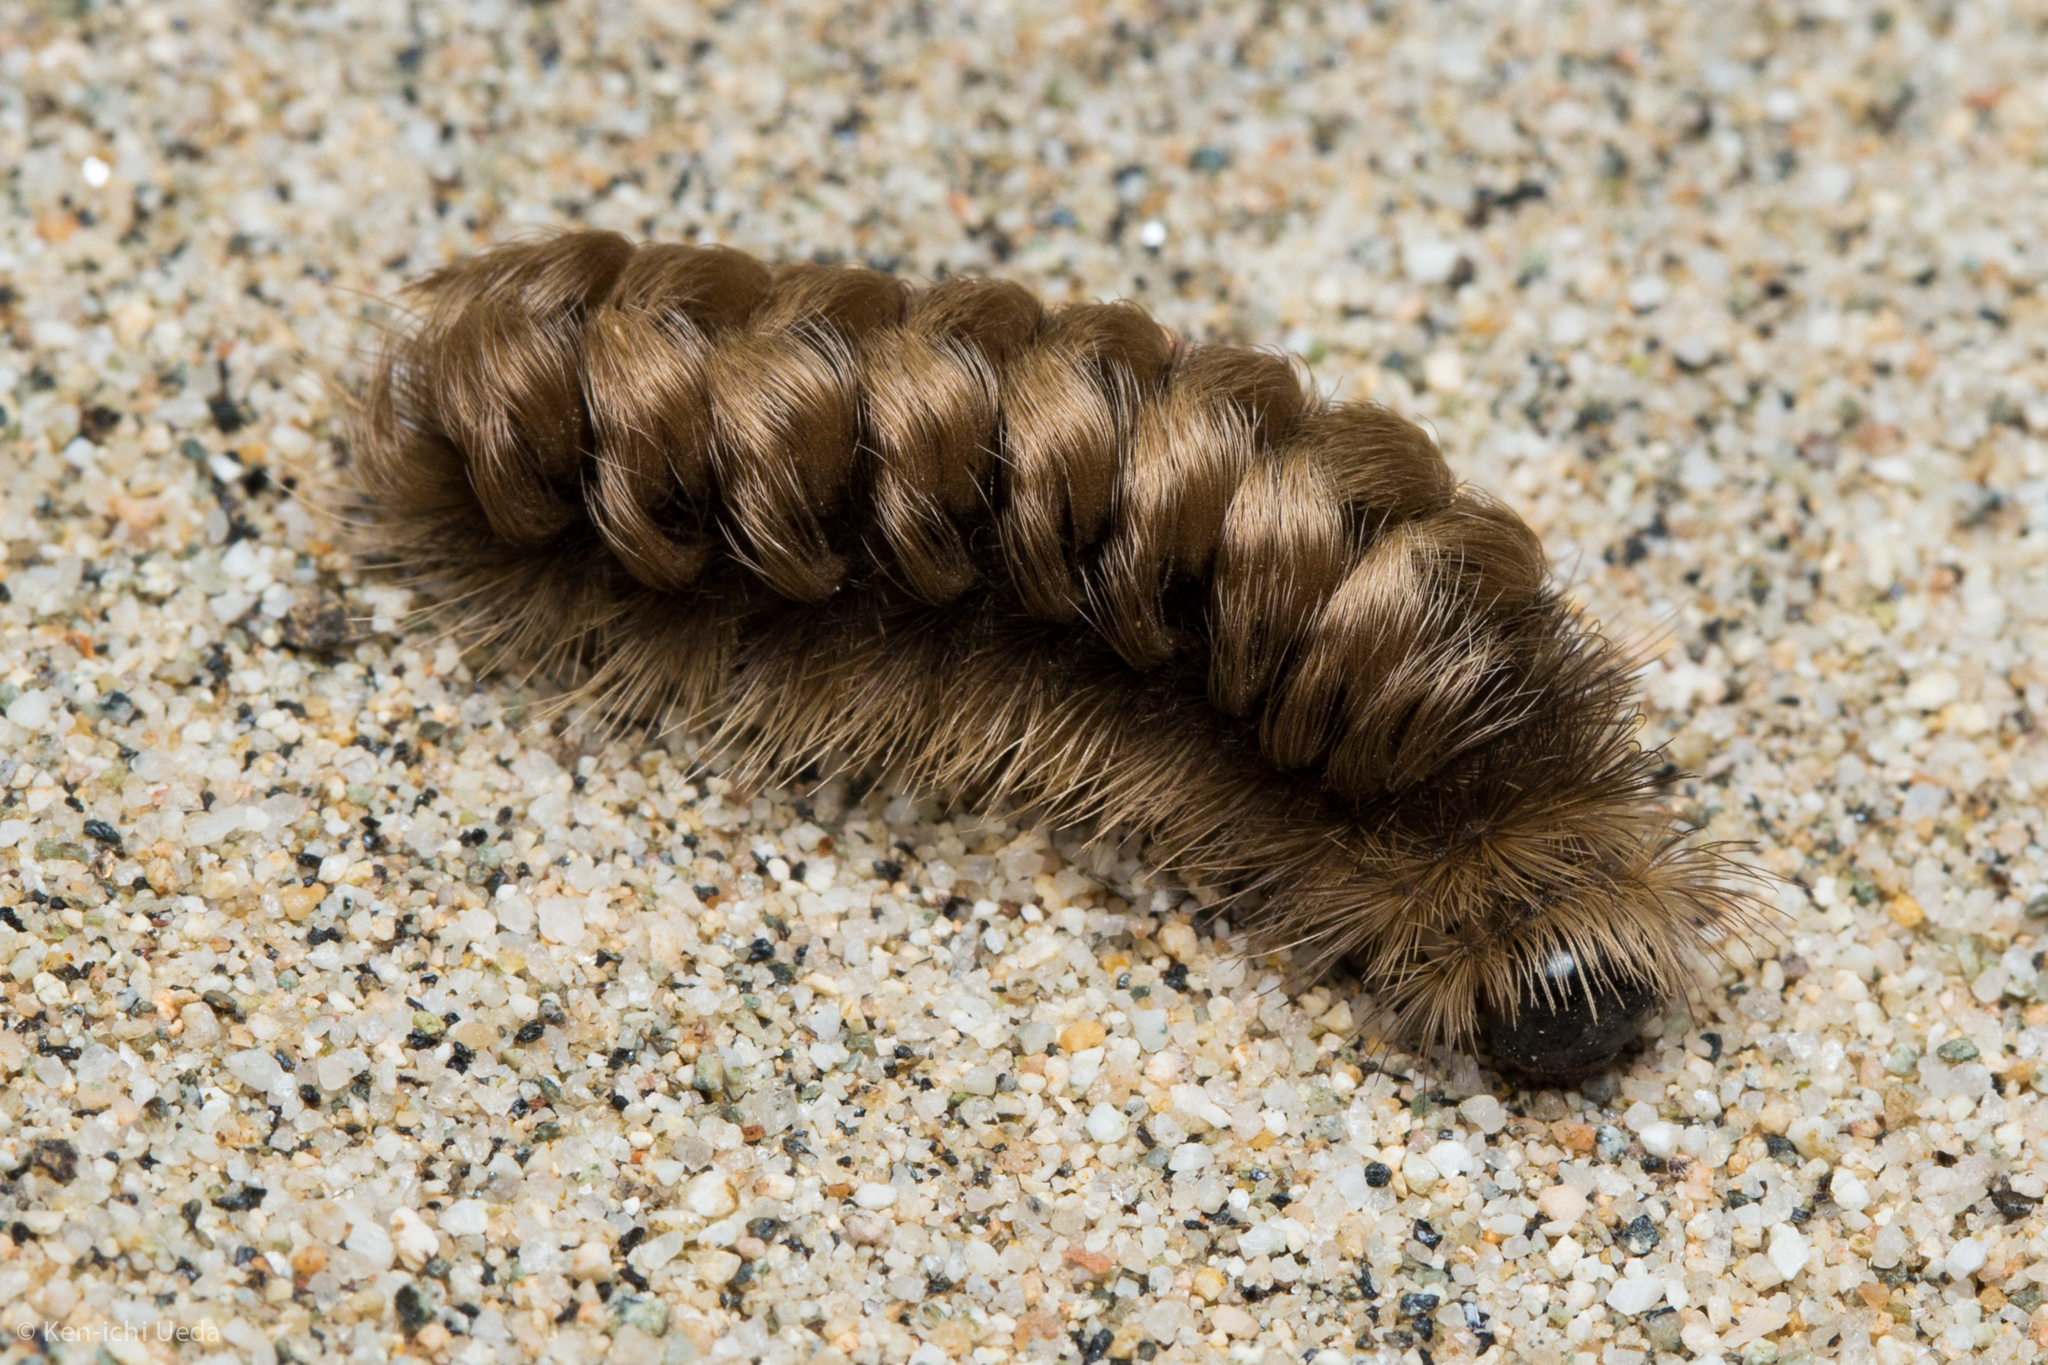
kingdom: Animalia
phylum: Arthropoda
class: Insecta
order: Lepidoptera
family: Erebidae
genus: Ectypia
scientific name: Ectypia clio
